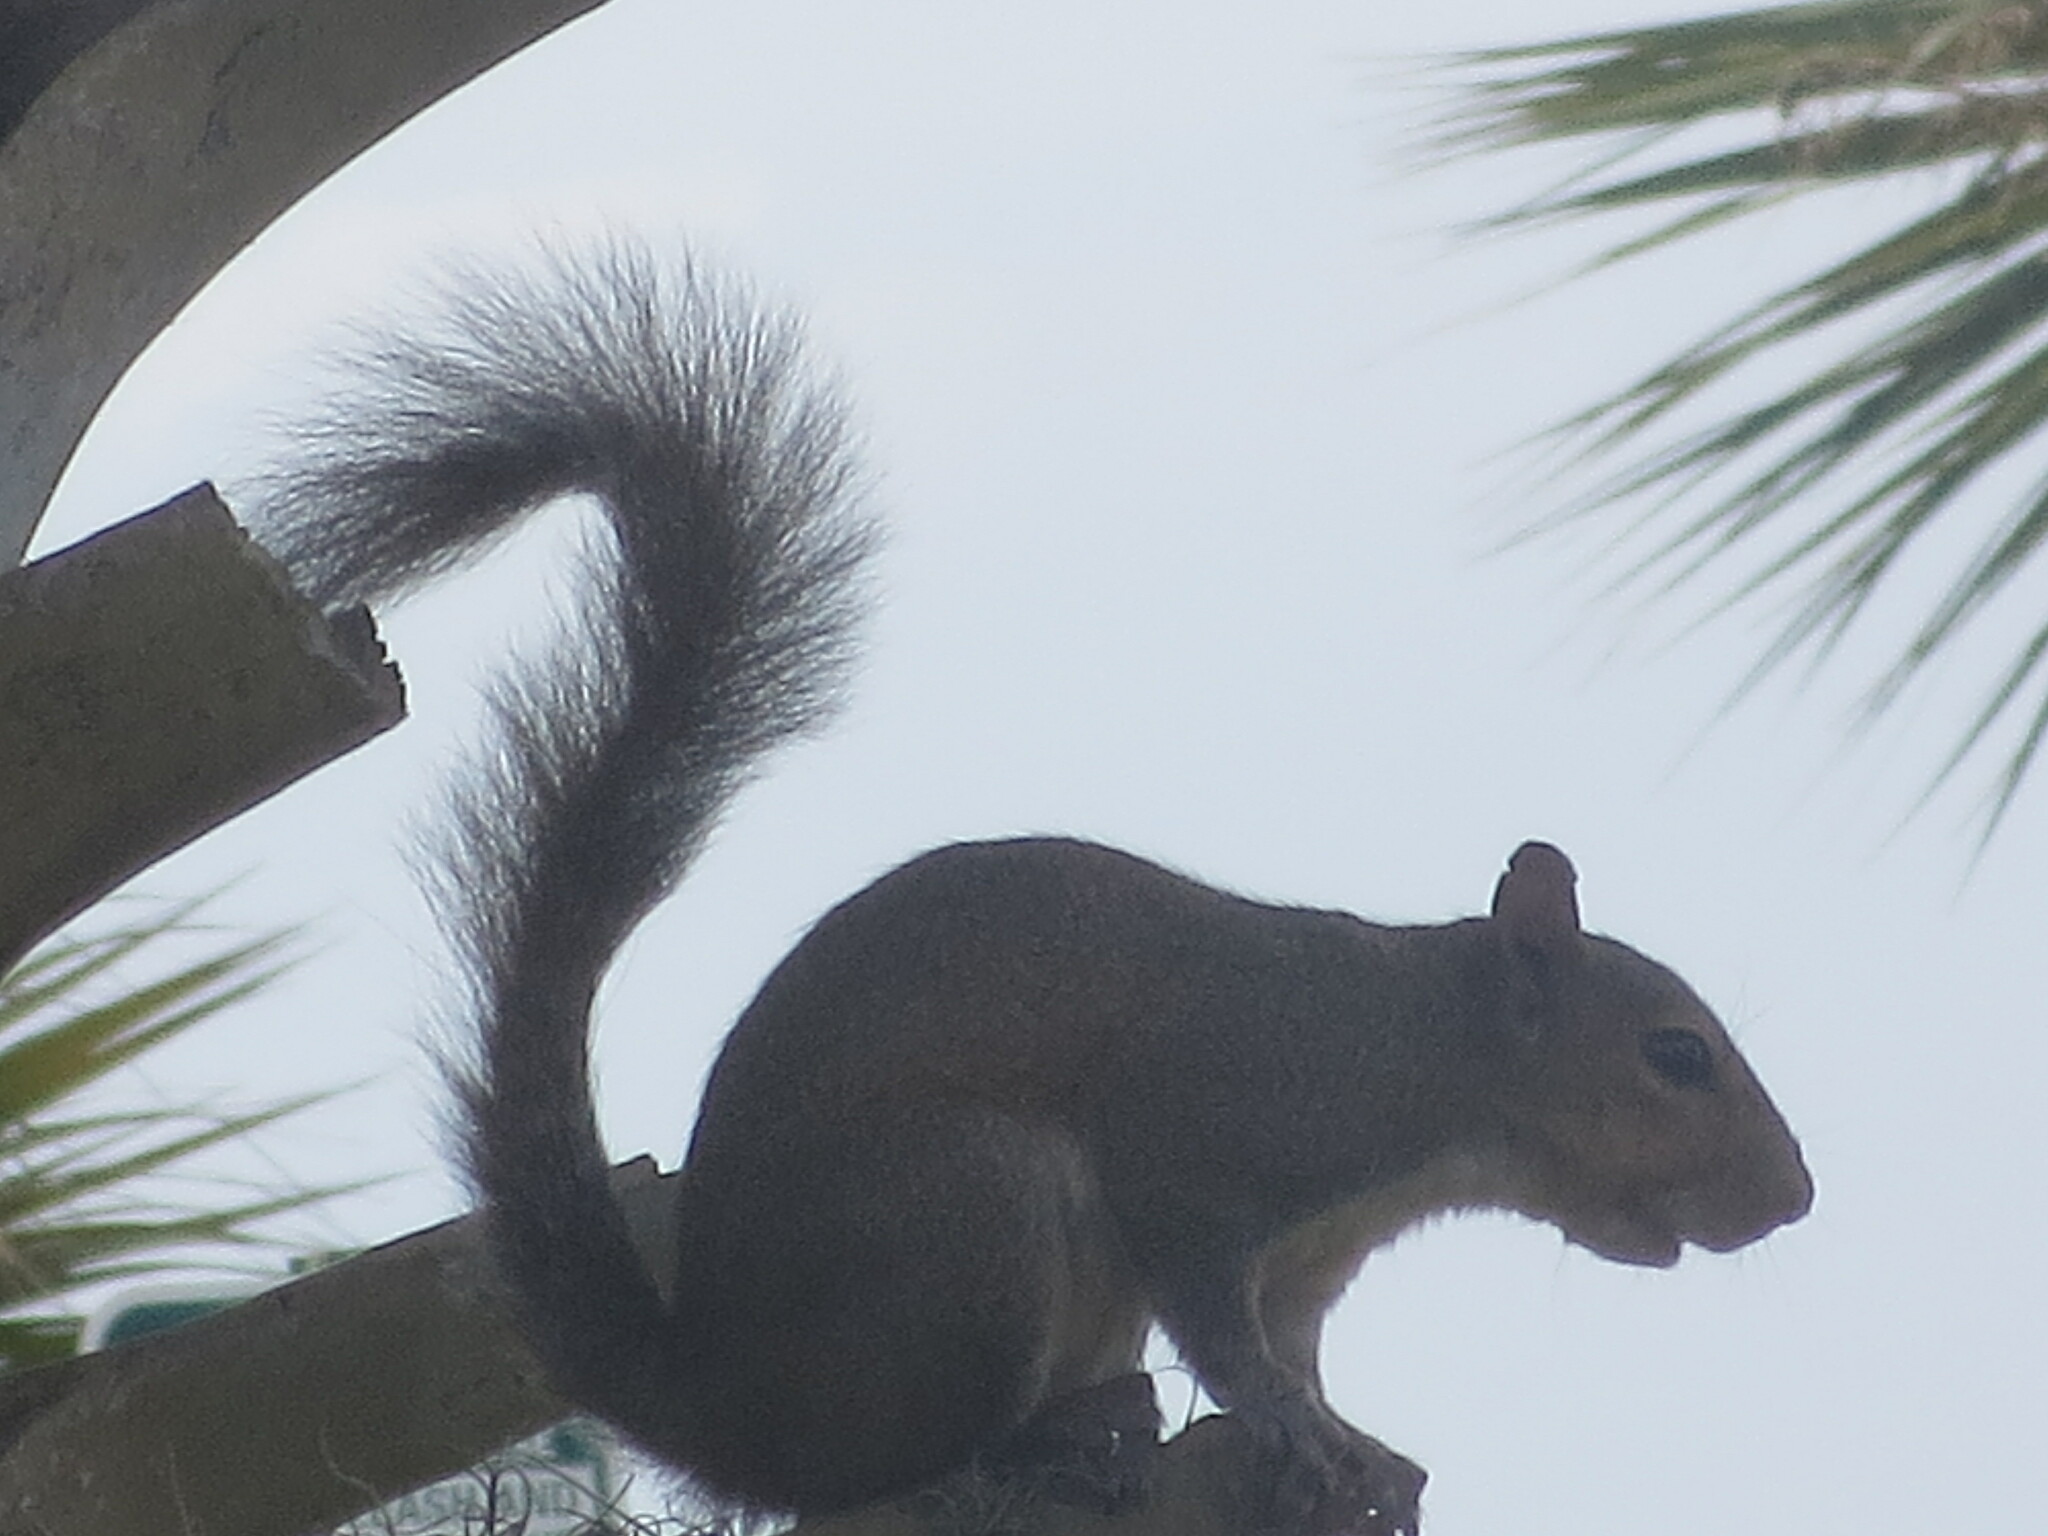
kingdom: Animalia
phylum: Chordata
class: Mammalia
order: Rodentia
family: Sciuridae
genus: Sciurus
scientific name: Sciurus carolinensis
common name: Eastern gray squirrel
